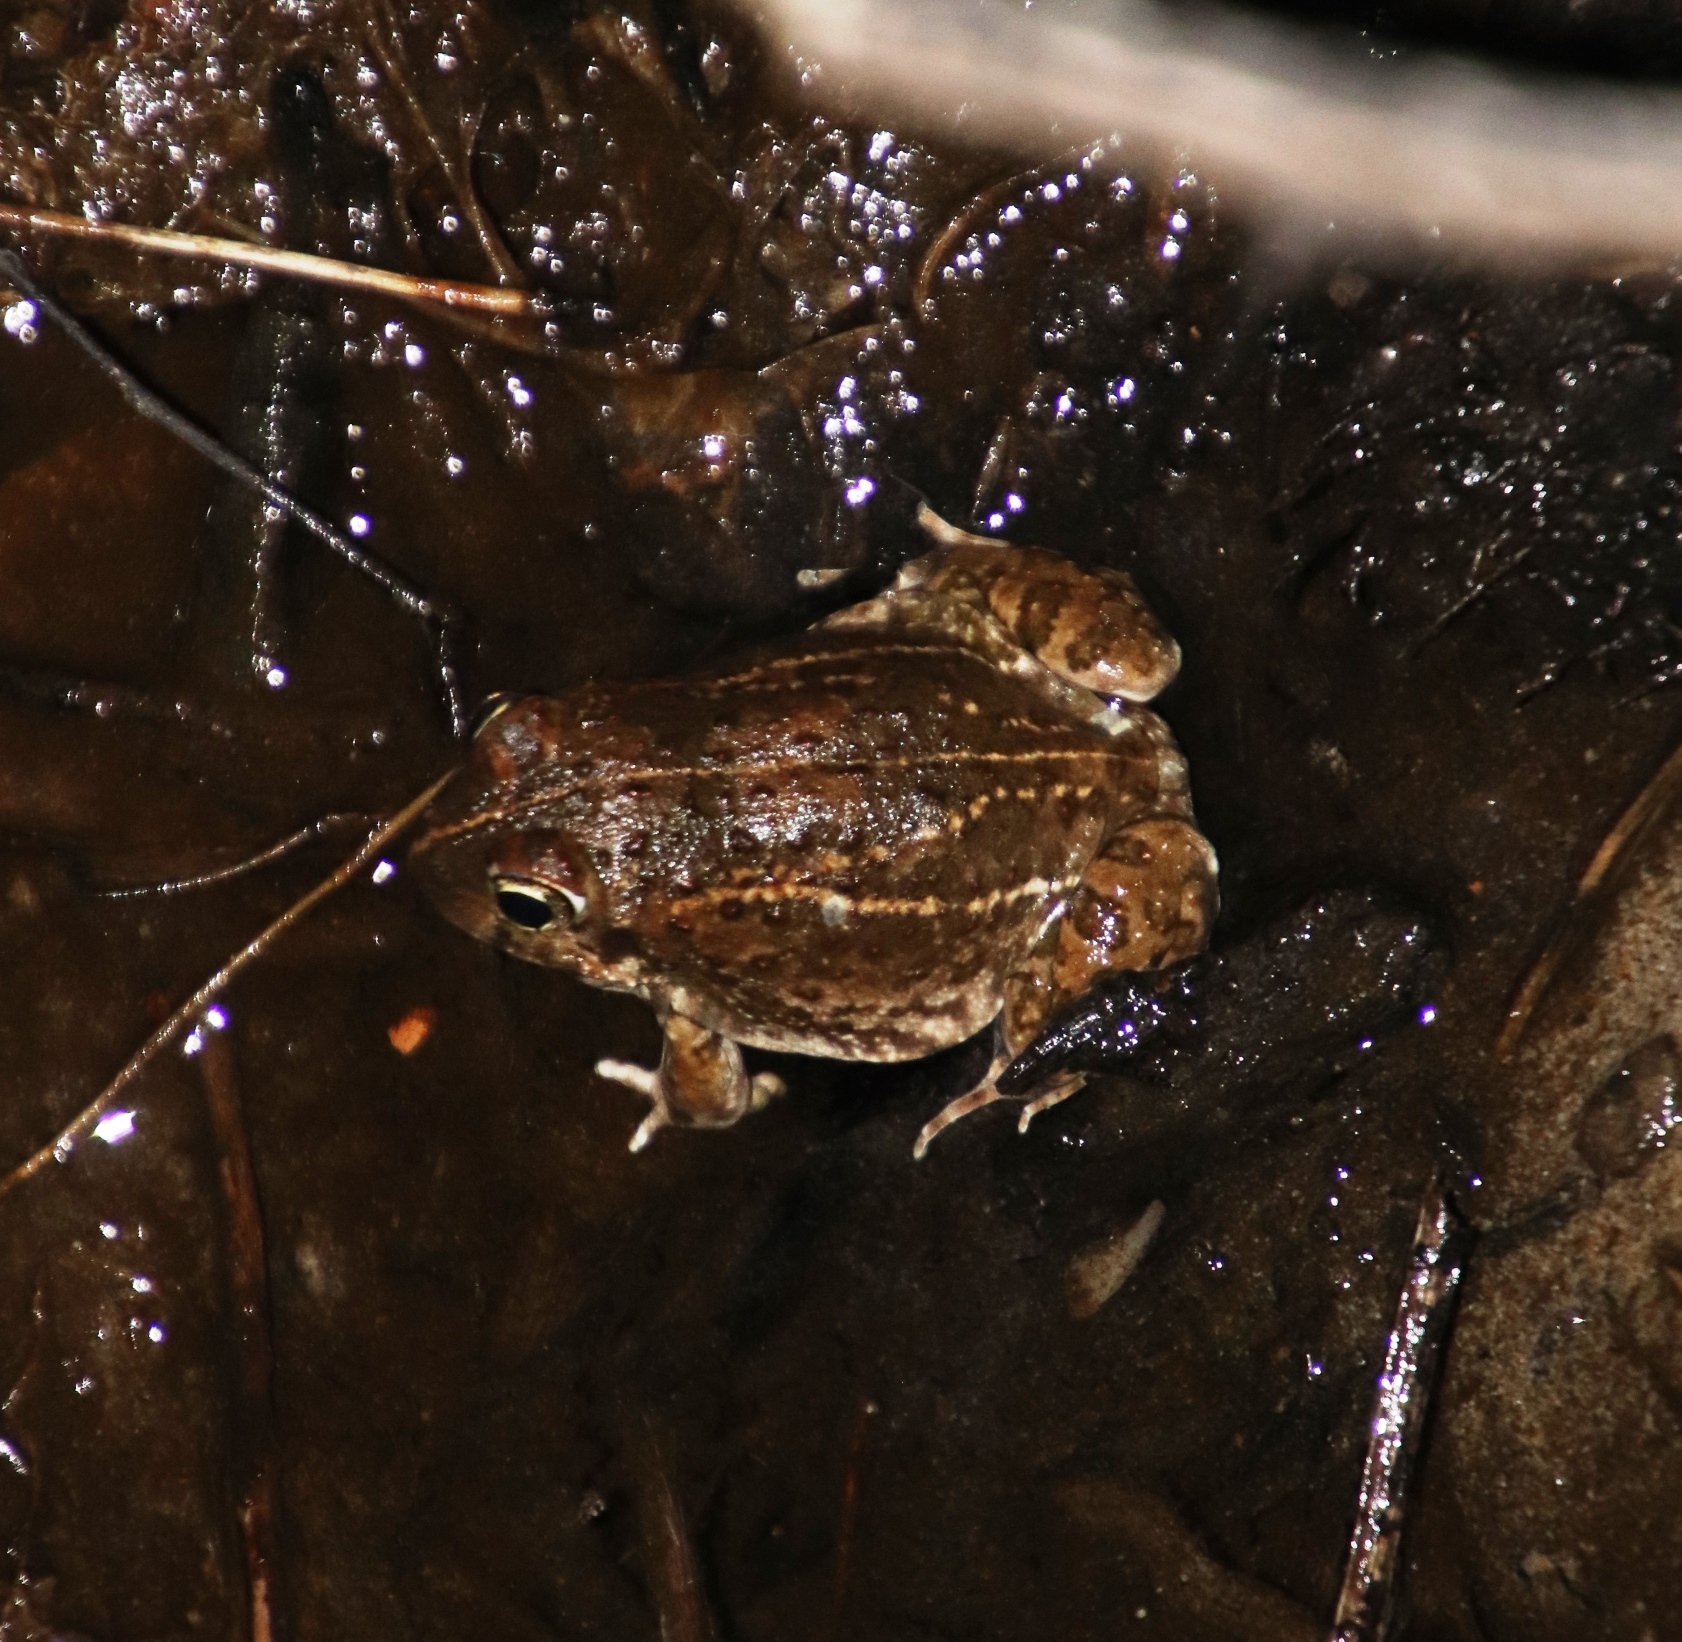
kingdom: Animalia
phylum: Chordata
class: Amphibia
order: Anura
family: Pyxicephalidae
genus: Tomopterna
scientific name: Tomopterna delalandii
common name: Delalande's burrowing bullfrog
